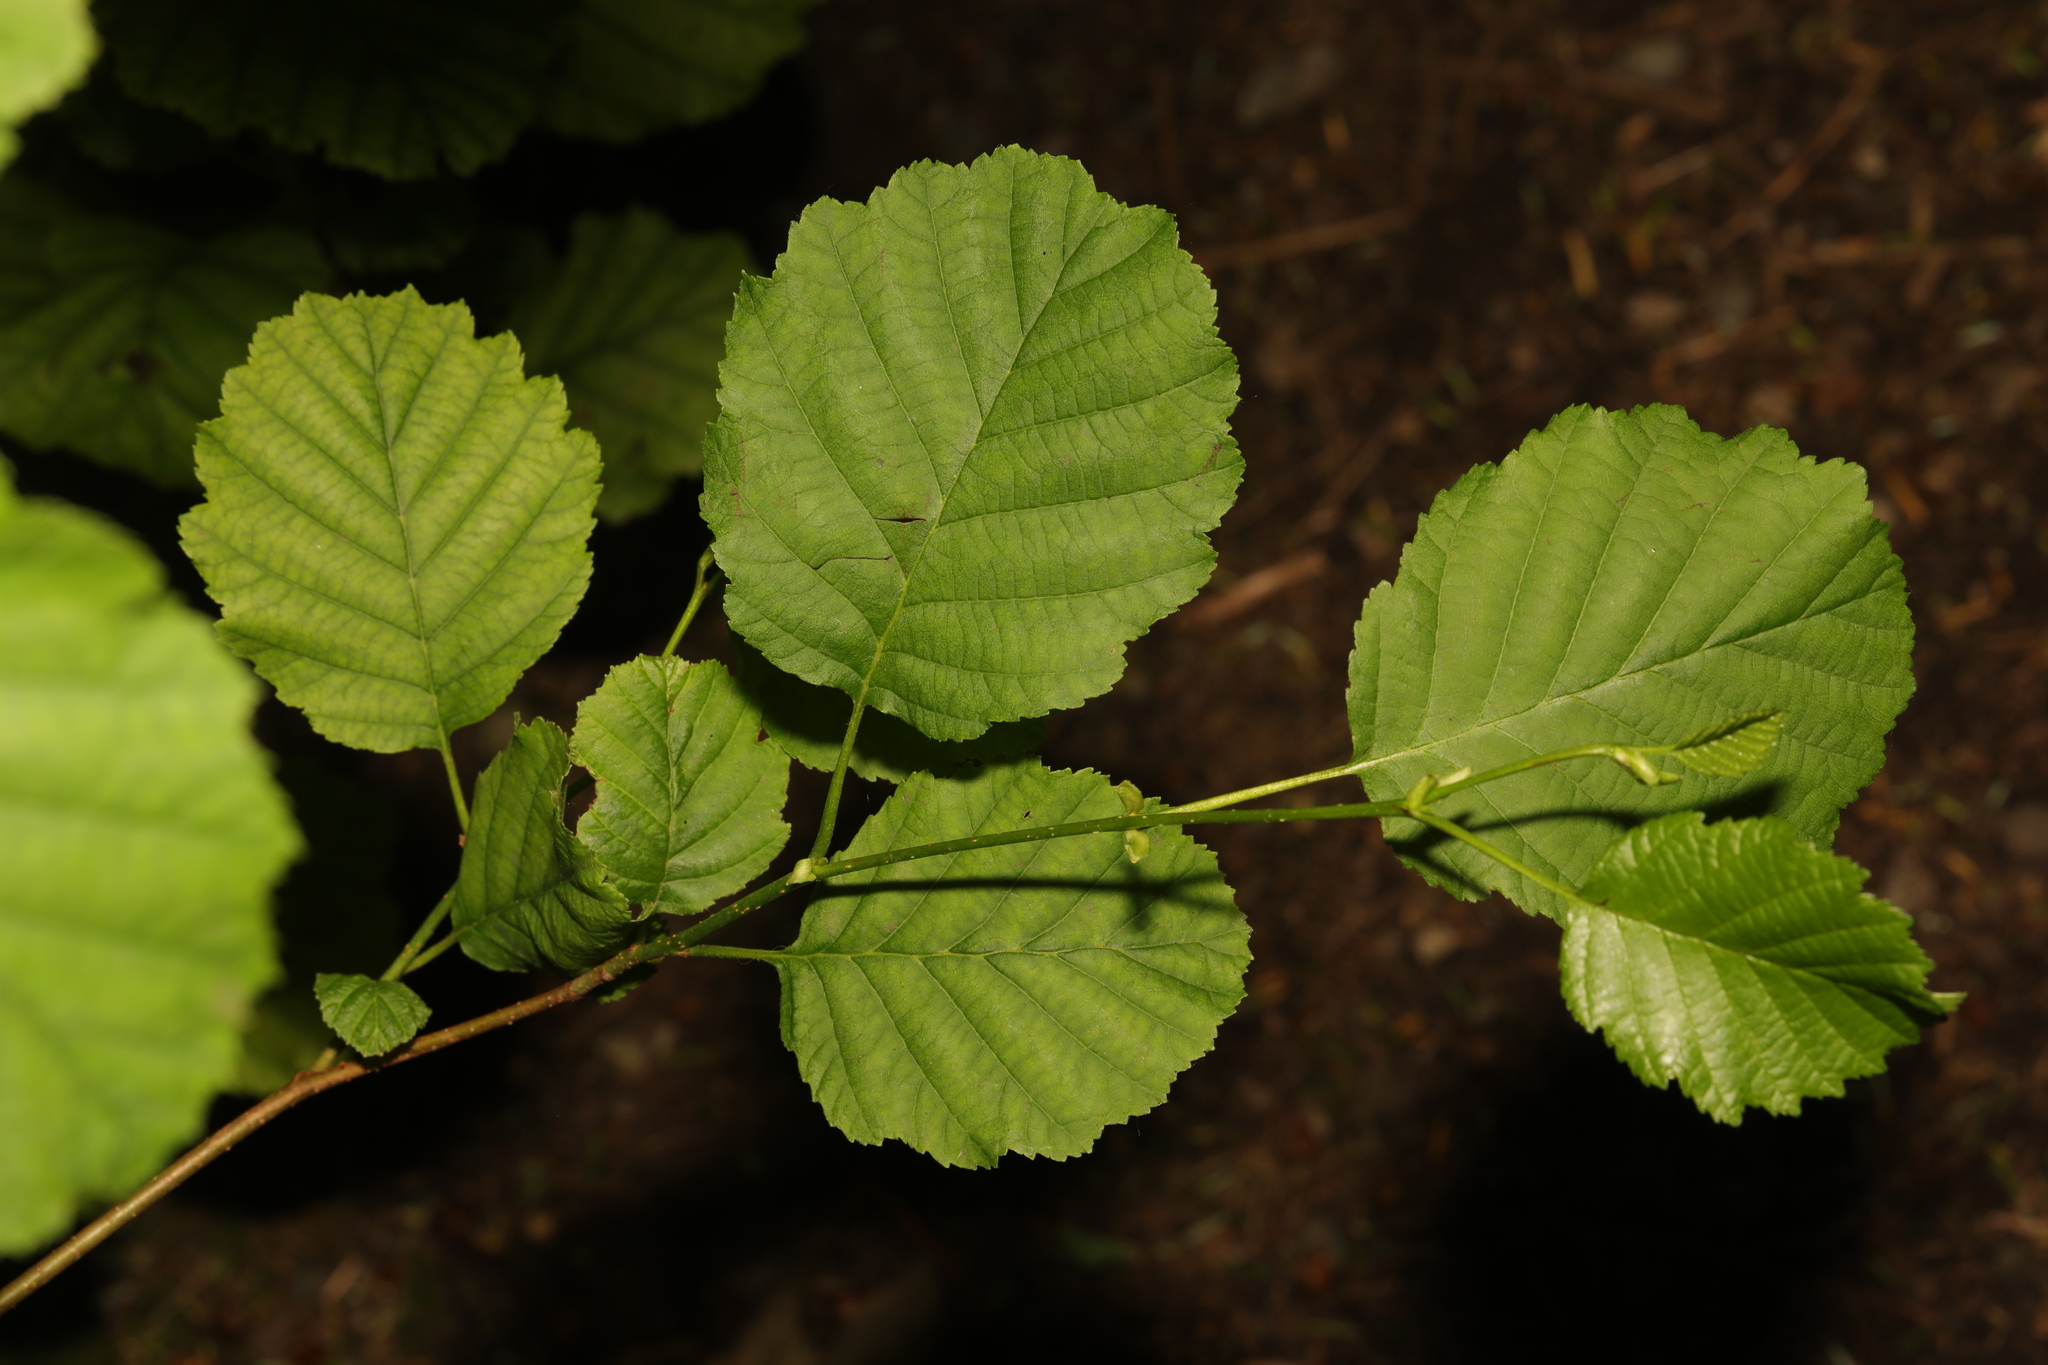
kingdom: Plantae
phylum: Tracheophyta
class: Magnoliopsida
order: Fagales
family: Betulaceae
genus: Alnus
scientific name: Alnus glutinosa
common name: Black alder
